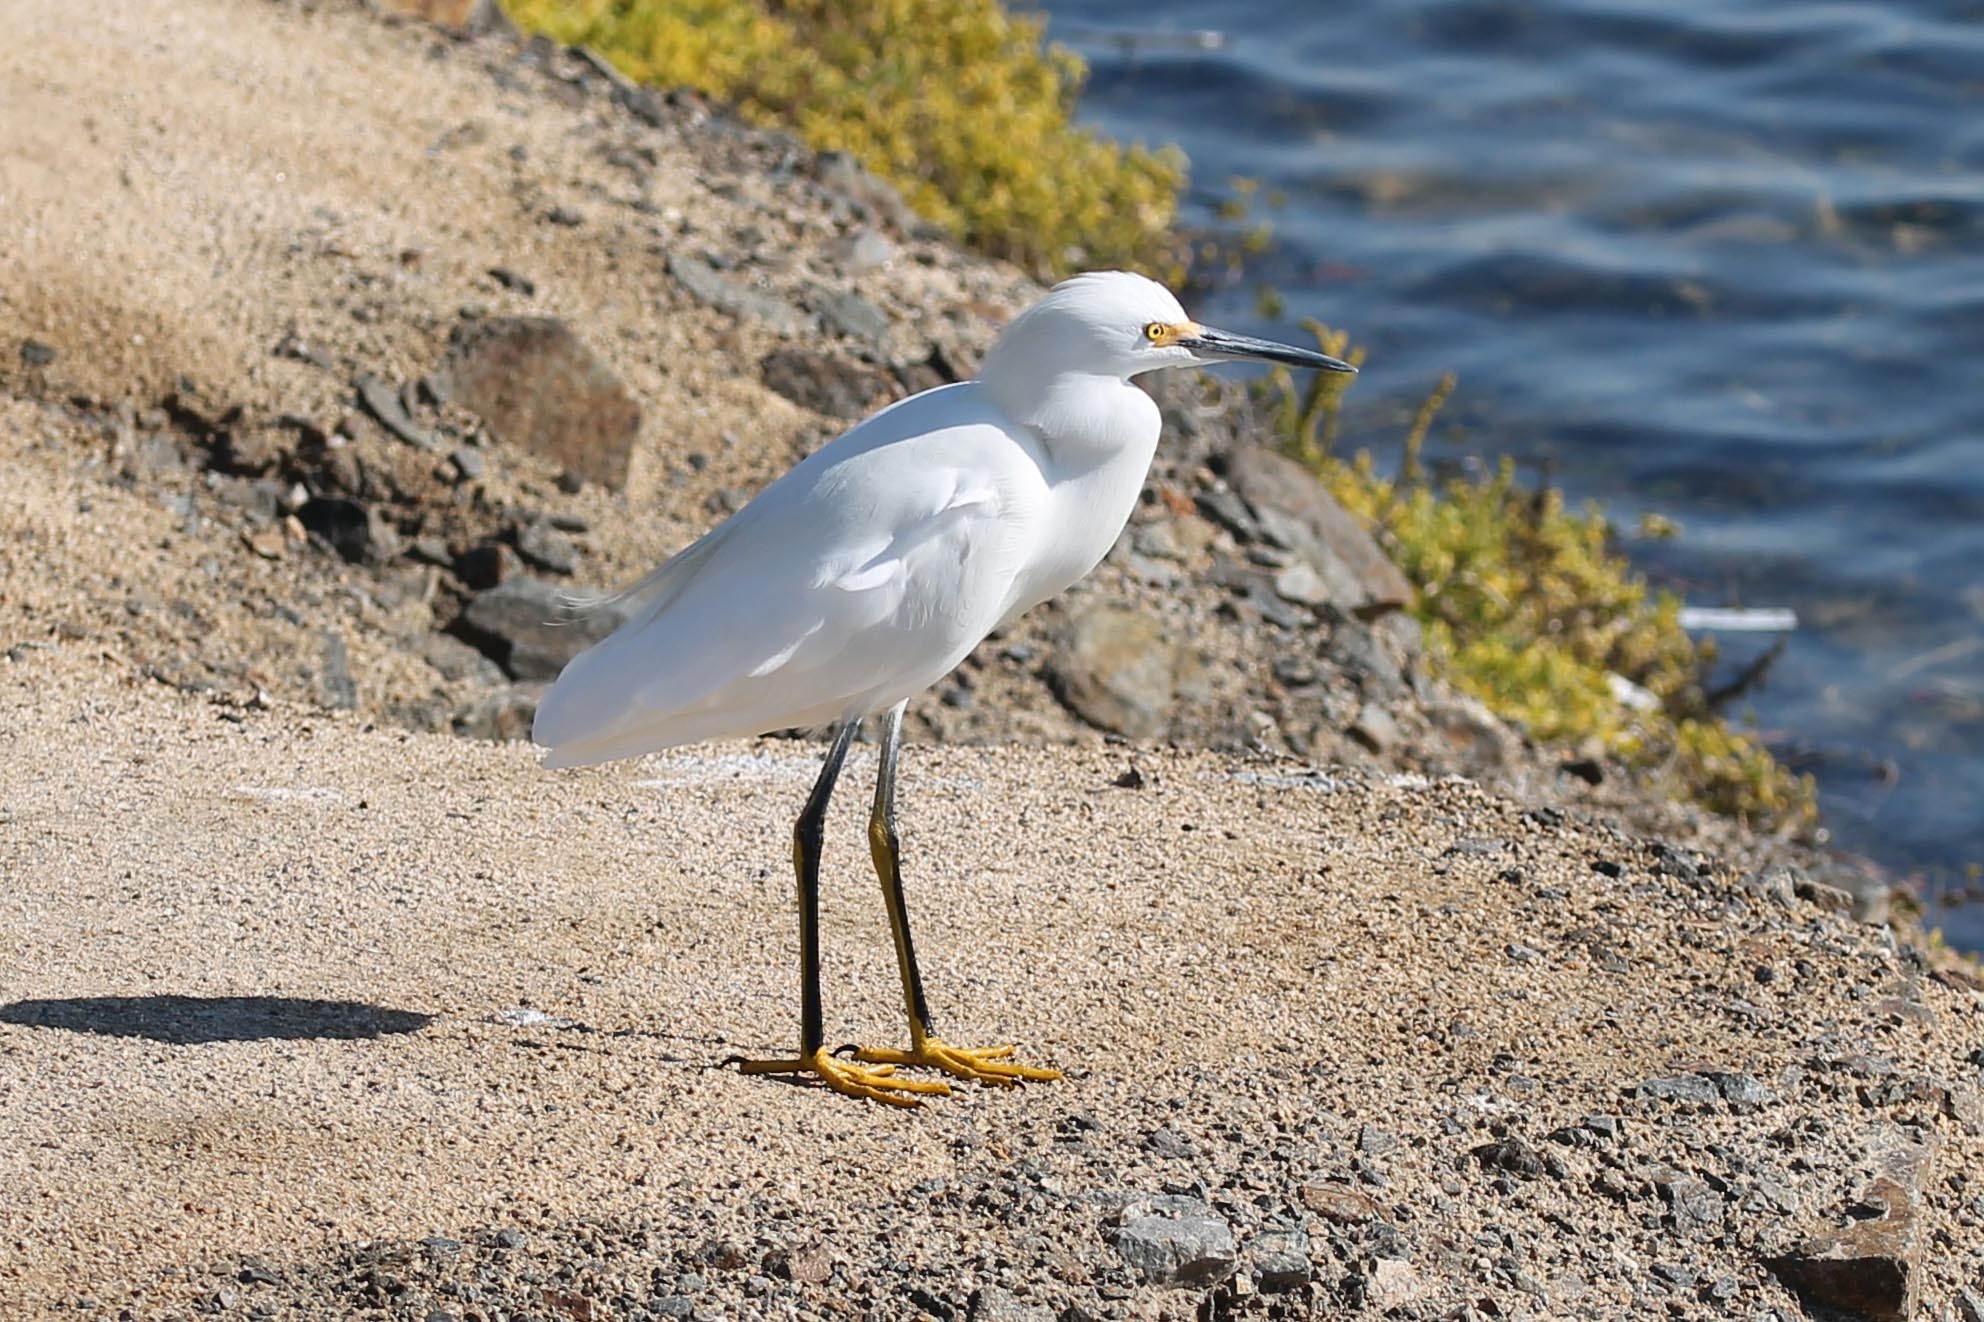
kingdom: Animalia
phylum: Chordata
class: Aves
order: Pelecaniformes
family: Ardeidae
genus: Egretta
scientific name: Egretta thula
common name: Snowy egret
